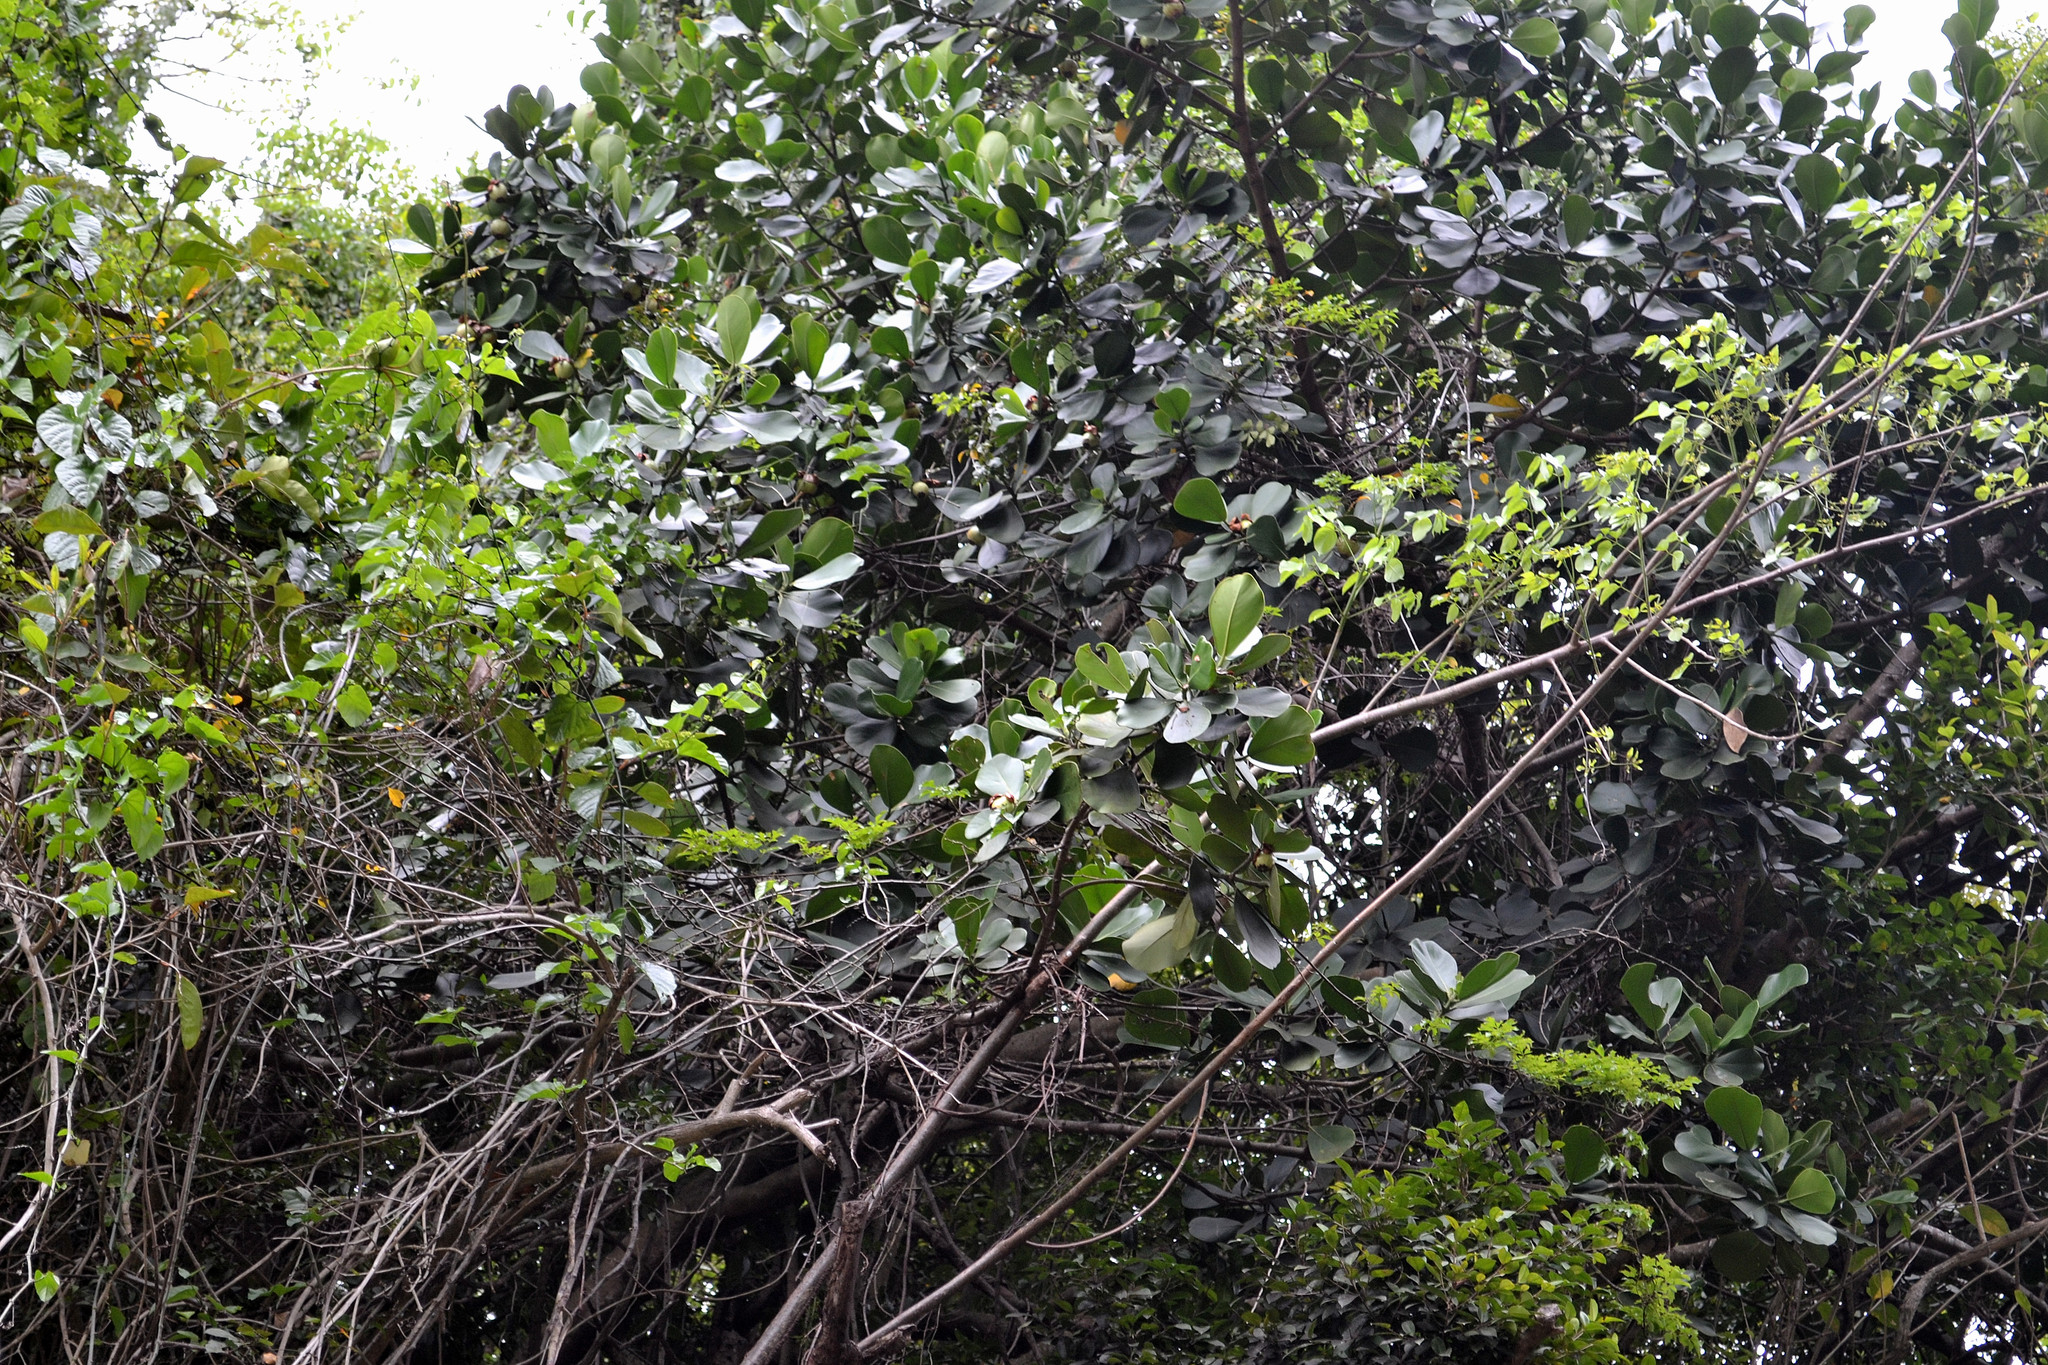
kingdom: Plantae
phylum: Tracheophyta
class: Magnoliopsida
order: Malpighiales
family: Clusiaceae
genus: Clusia
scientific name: Clusia rosea
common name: Scotch attorney
